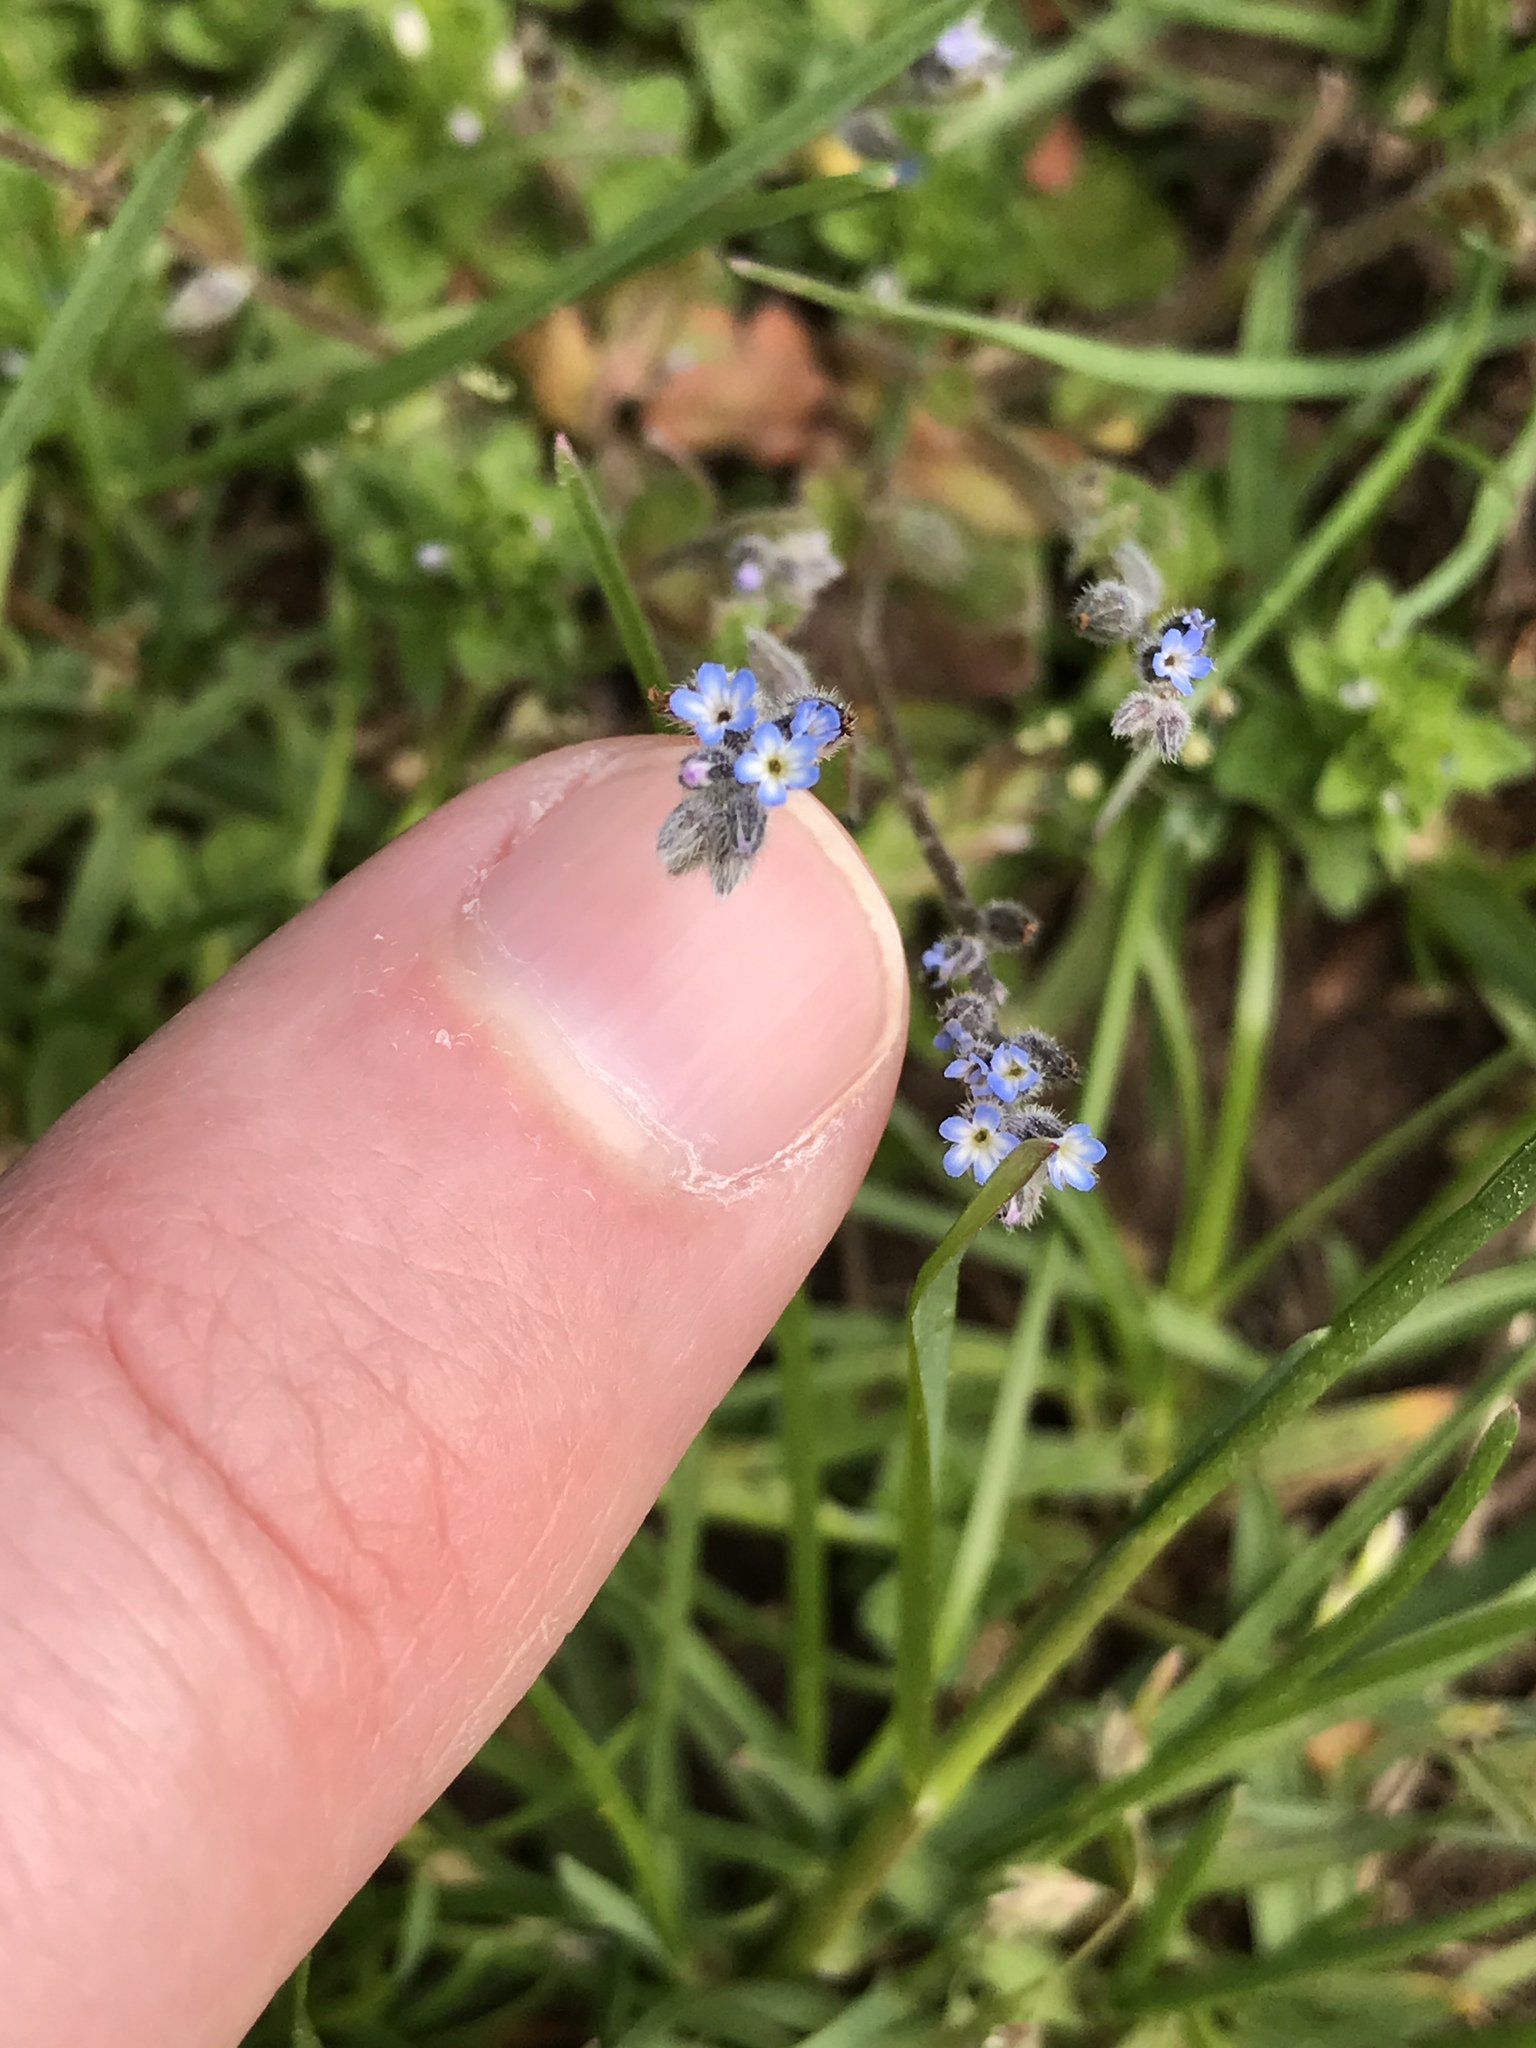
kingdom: Plantae
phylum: Tracheophyta
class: Magnoliopsida
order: Boraginales
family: Boraginaceae
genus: Myosotis
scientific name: Myosotis stricta
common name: Strict forget-me-not
